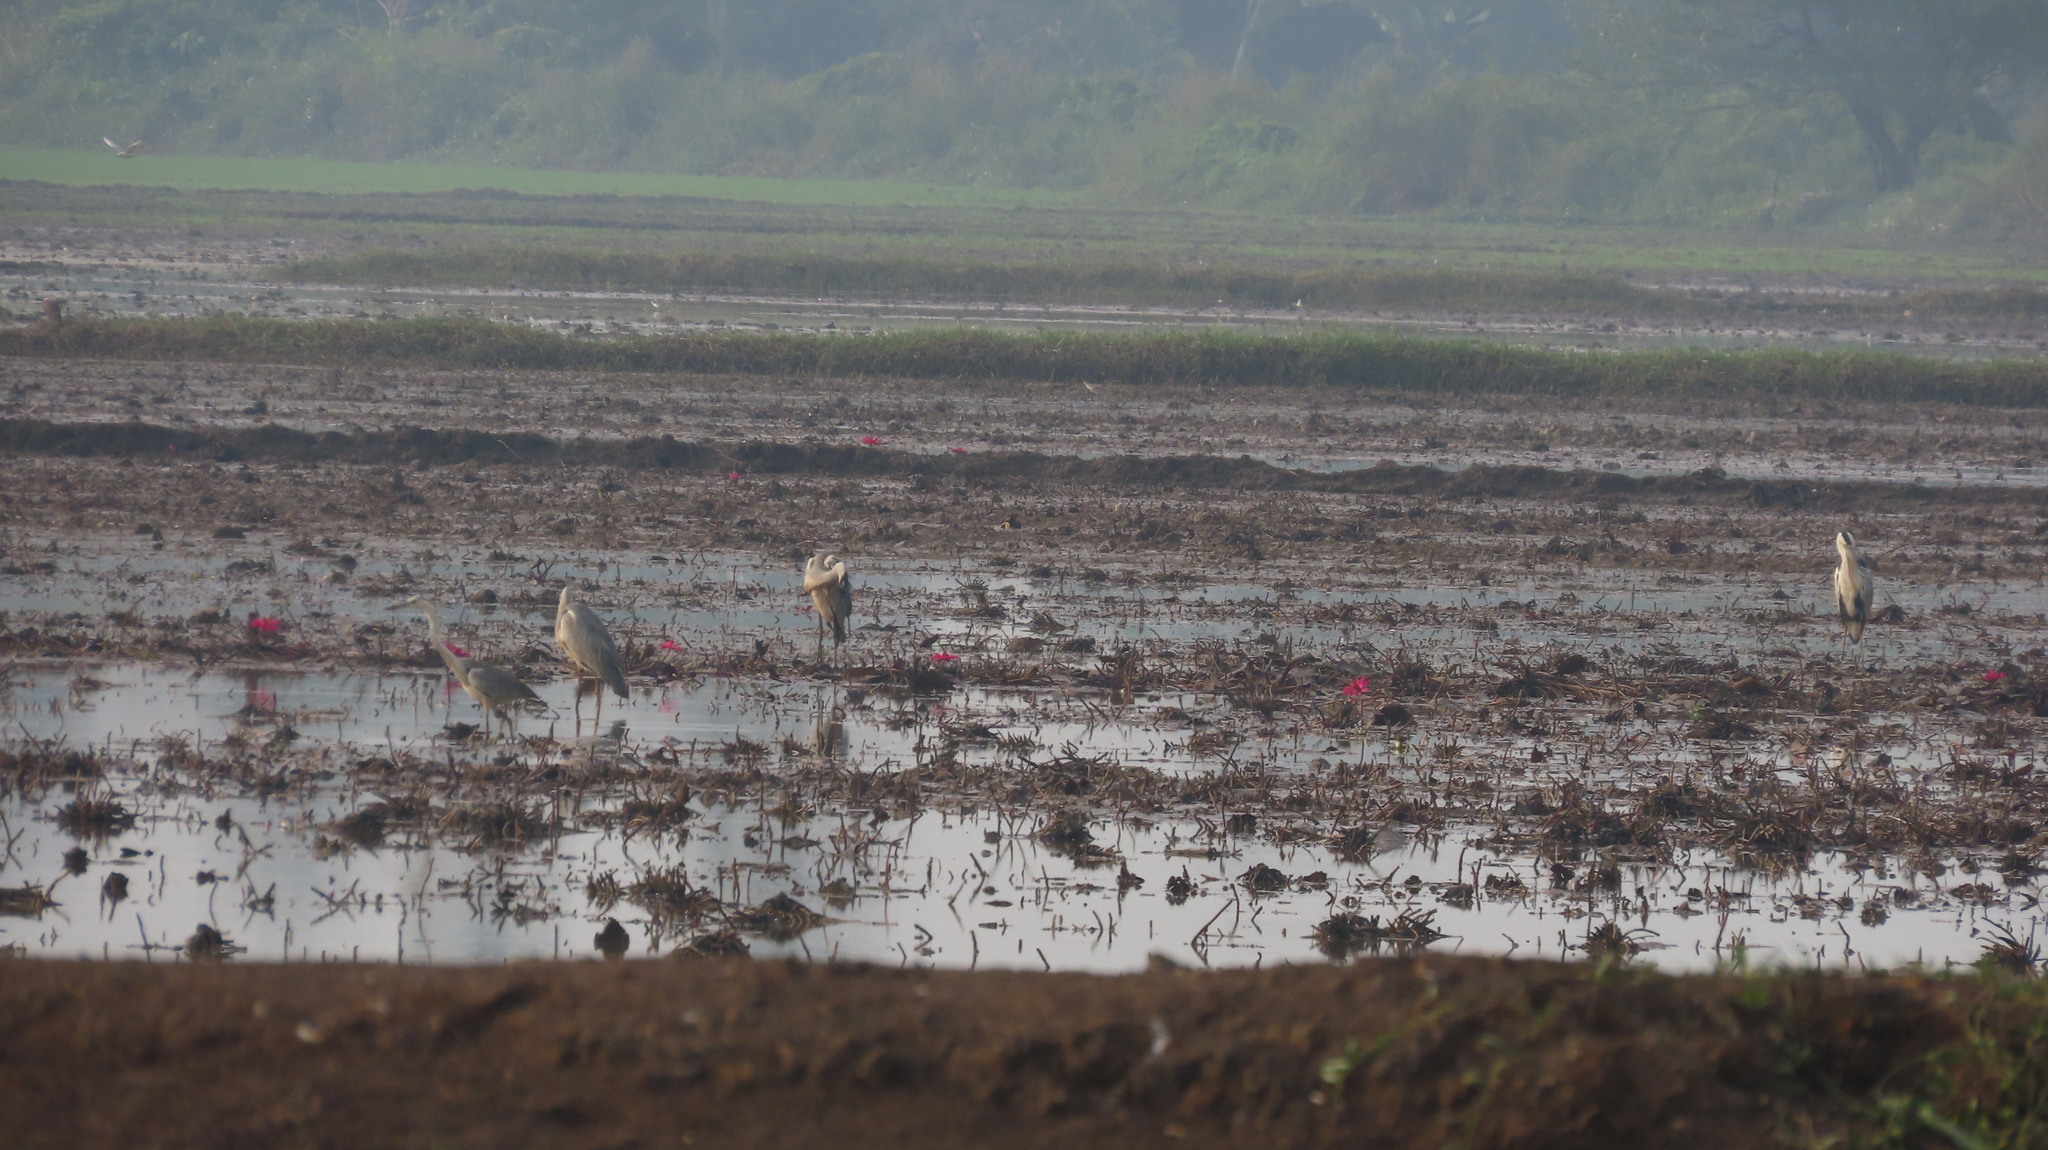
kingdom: Animalia
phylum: Chordata
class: Aves
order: Pelecaniformes
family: Ardeidae
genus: Ardea
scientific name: Ardea cinerea
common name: Grey heron
